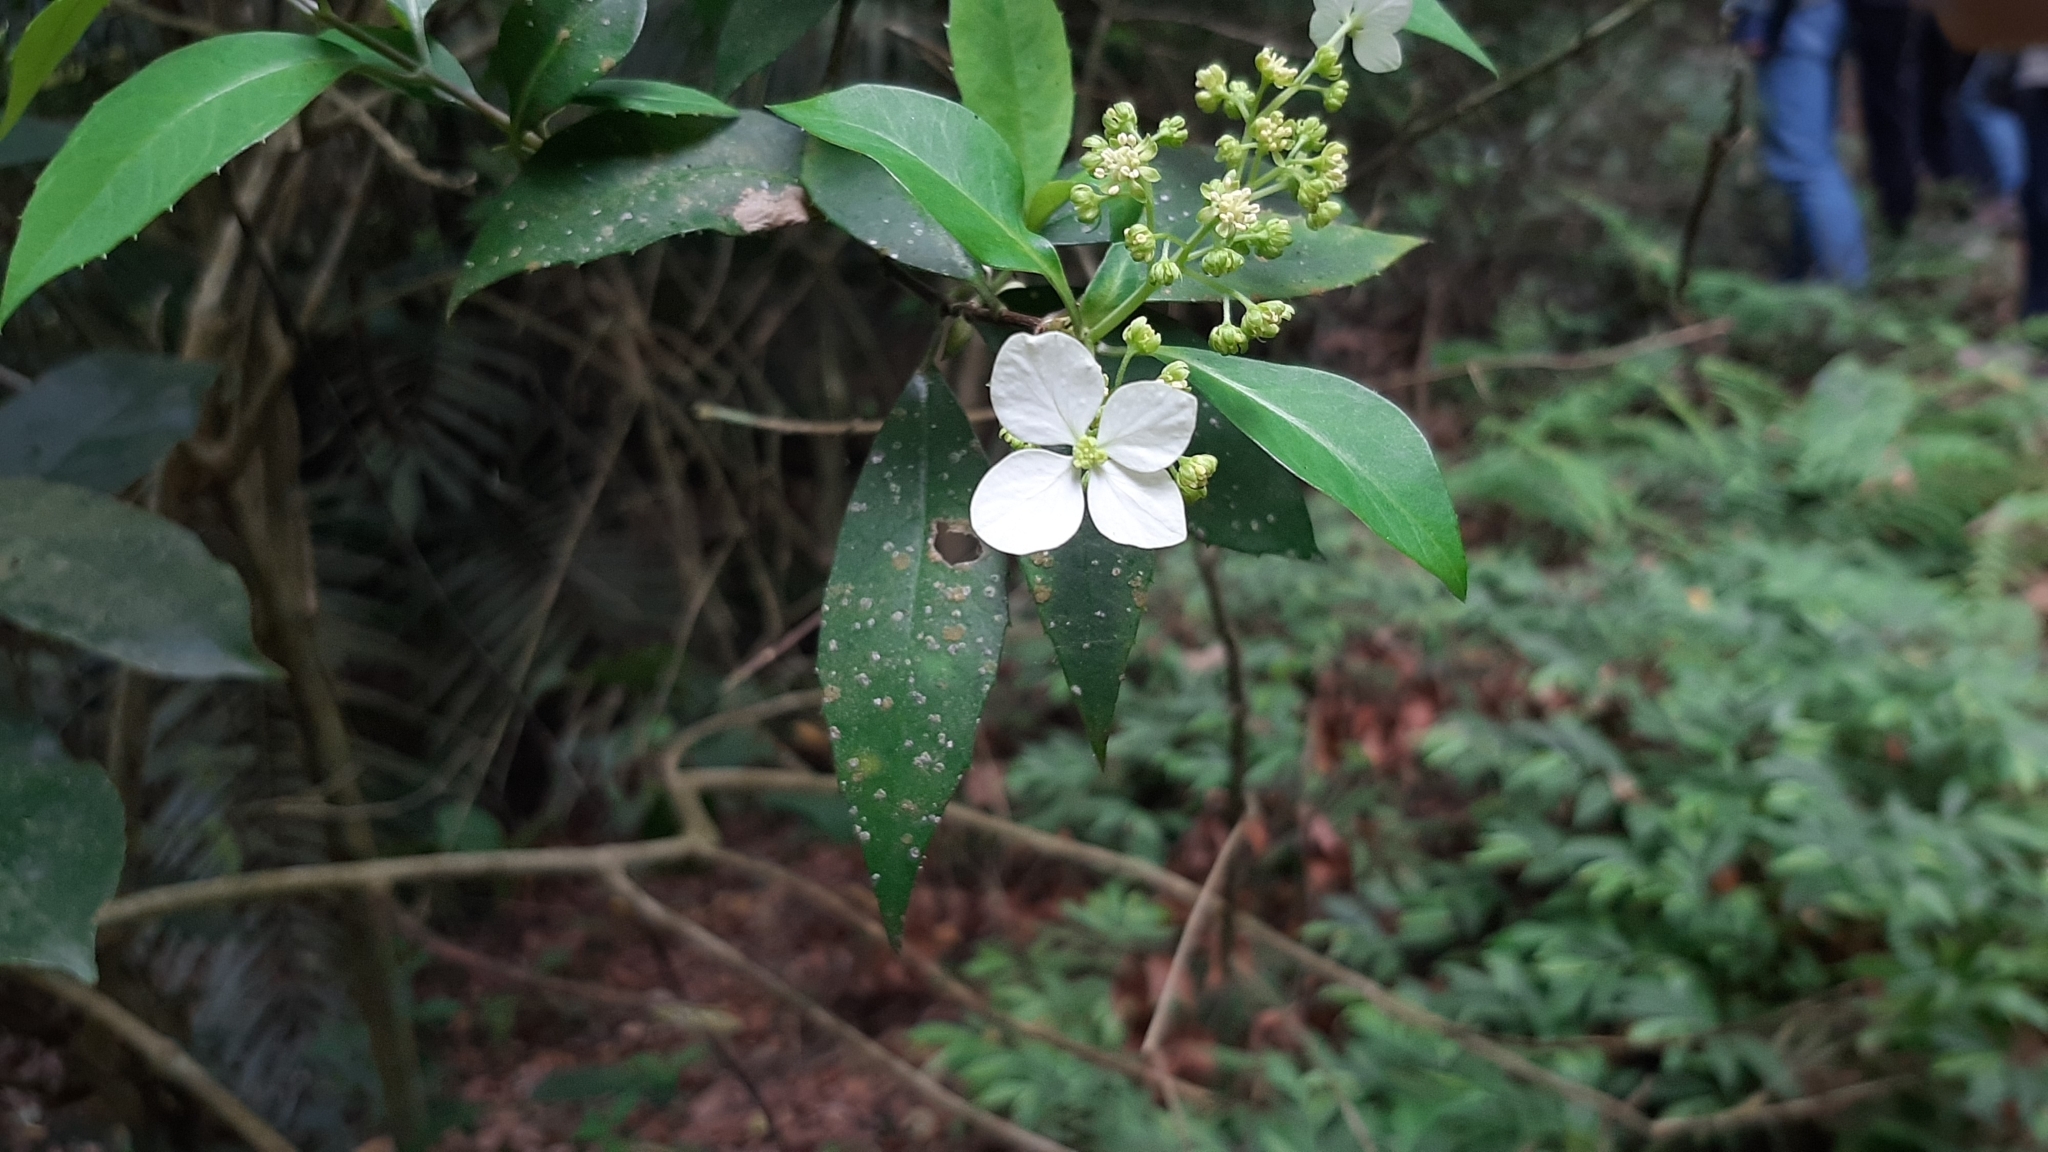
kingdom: Plantae
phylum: Tracheophyta
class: Magnoliopsida
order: Cornales
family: Hydrangeaceae
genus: Hydrangea
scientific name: Hydrangea chinensis
